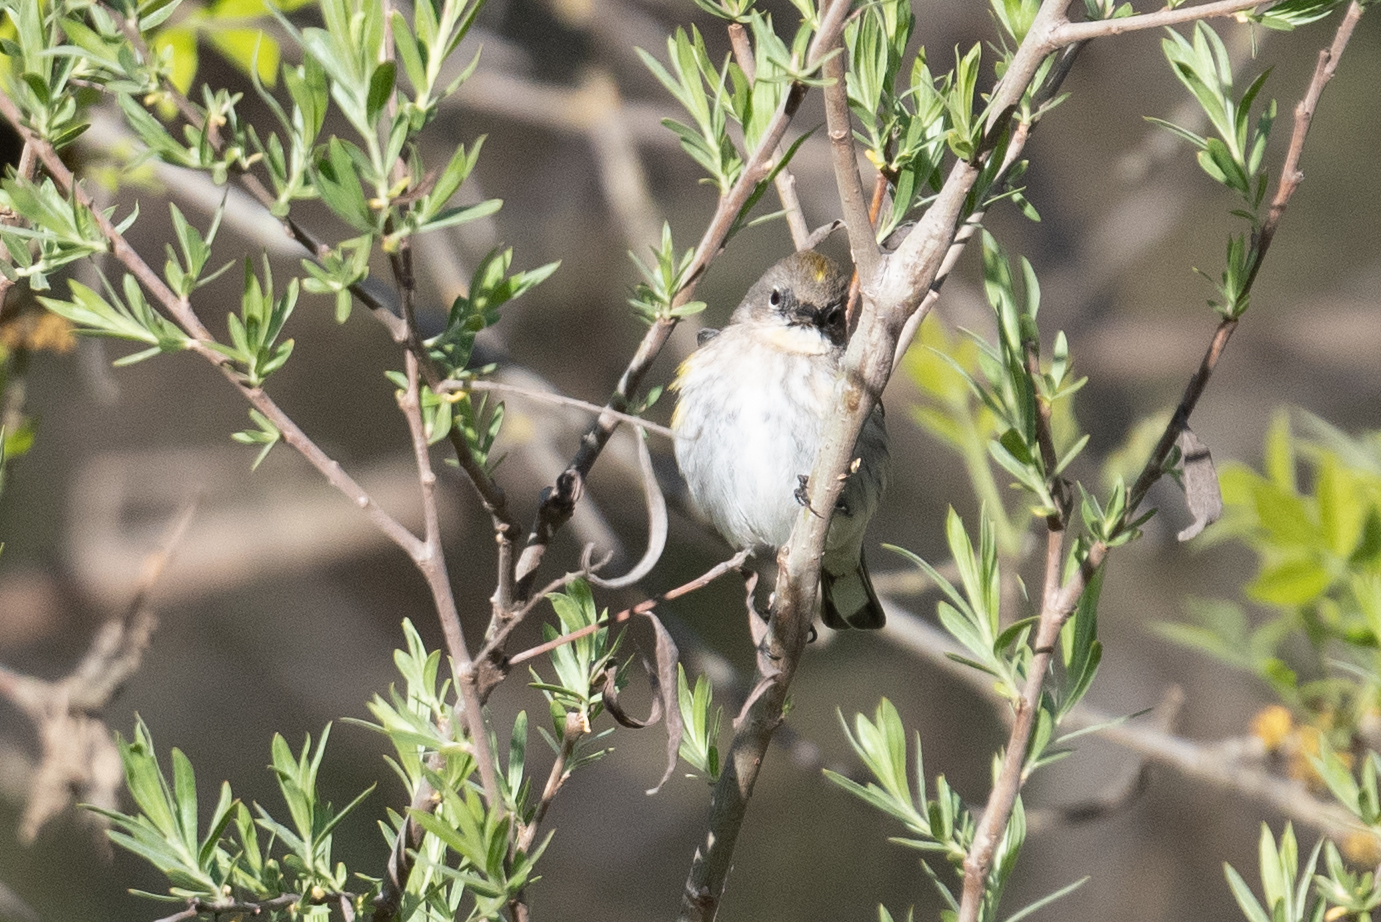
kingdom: Animalia
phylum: Chordata
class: Aves
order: Passeriformes
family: Parulidae
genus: Setophaga
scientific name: Setophaga coronata
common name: Myrtle warbler
